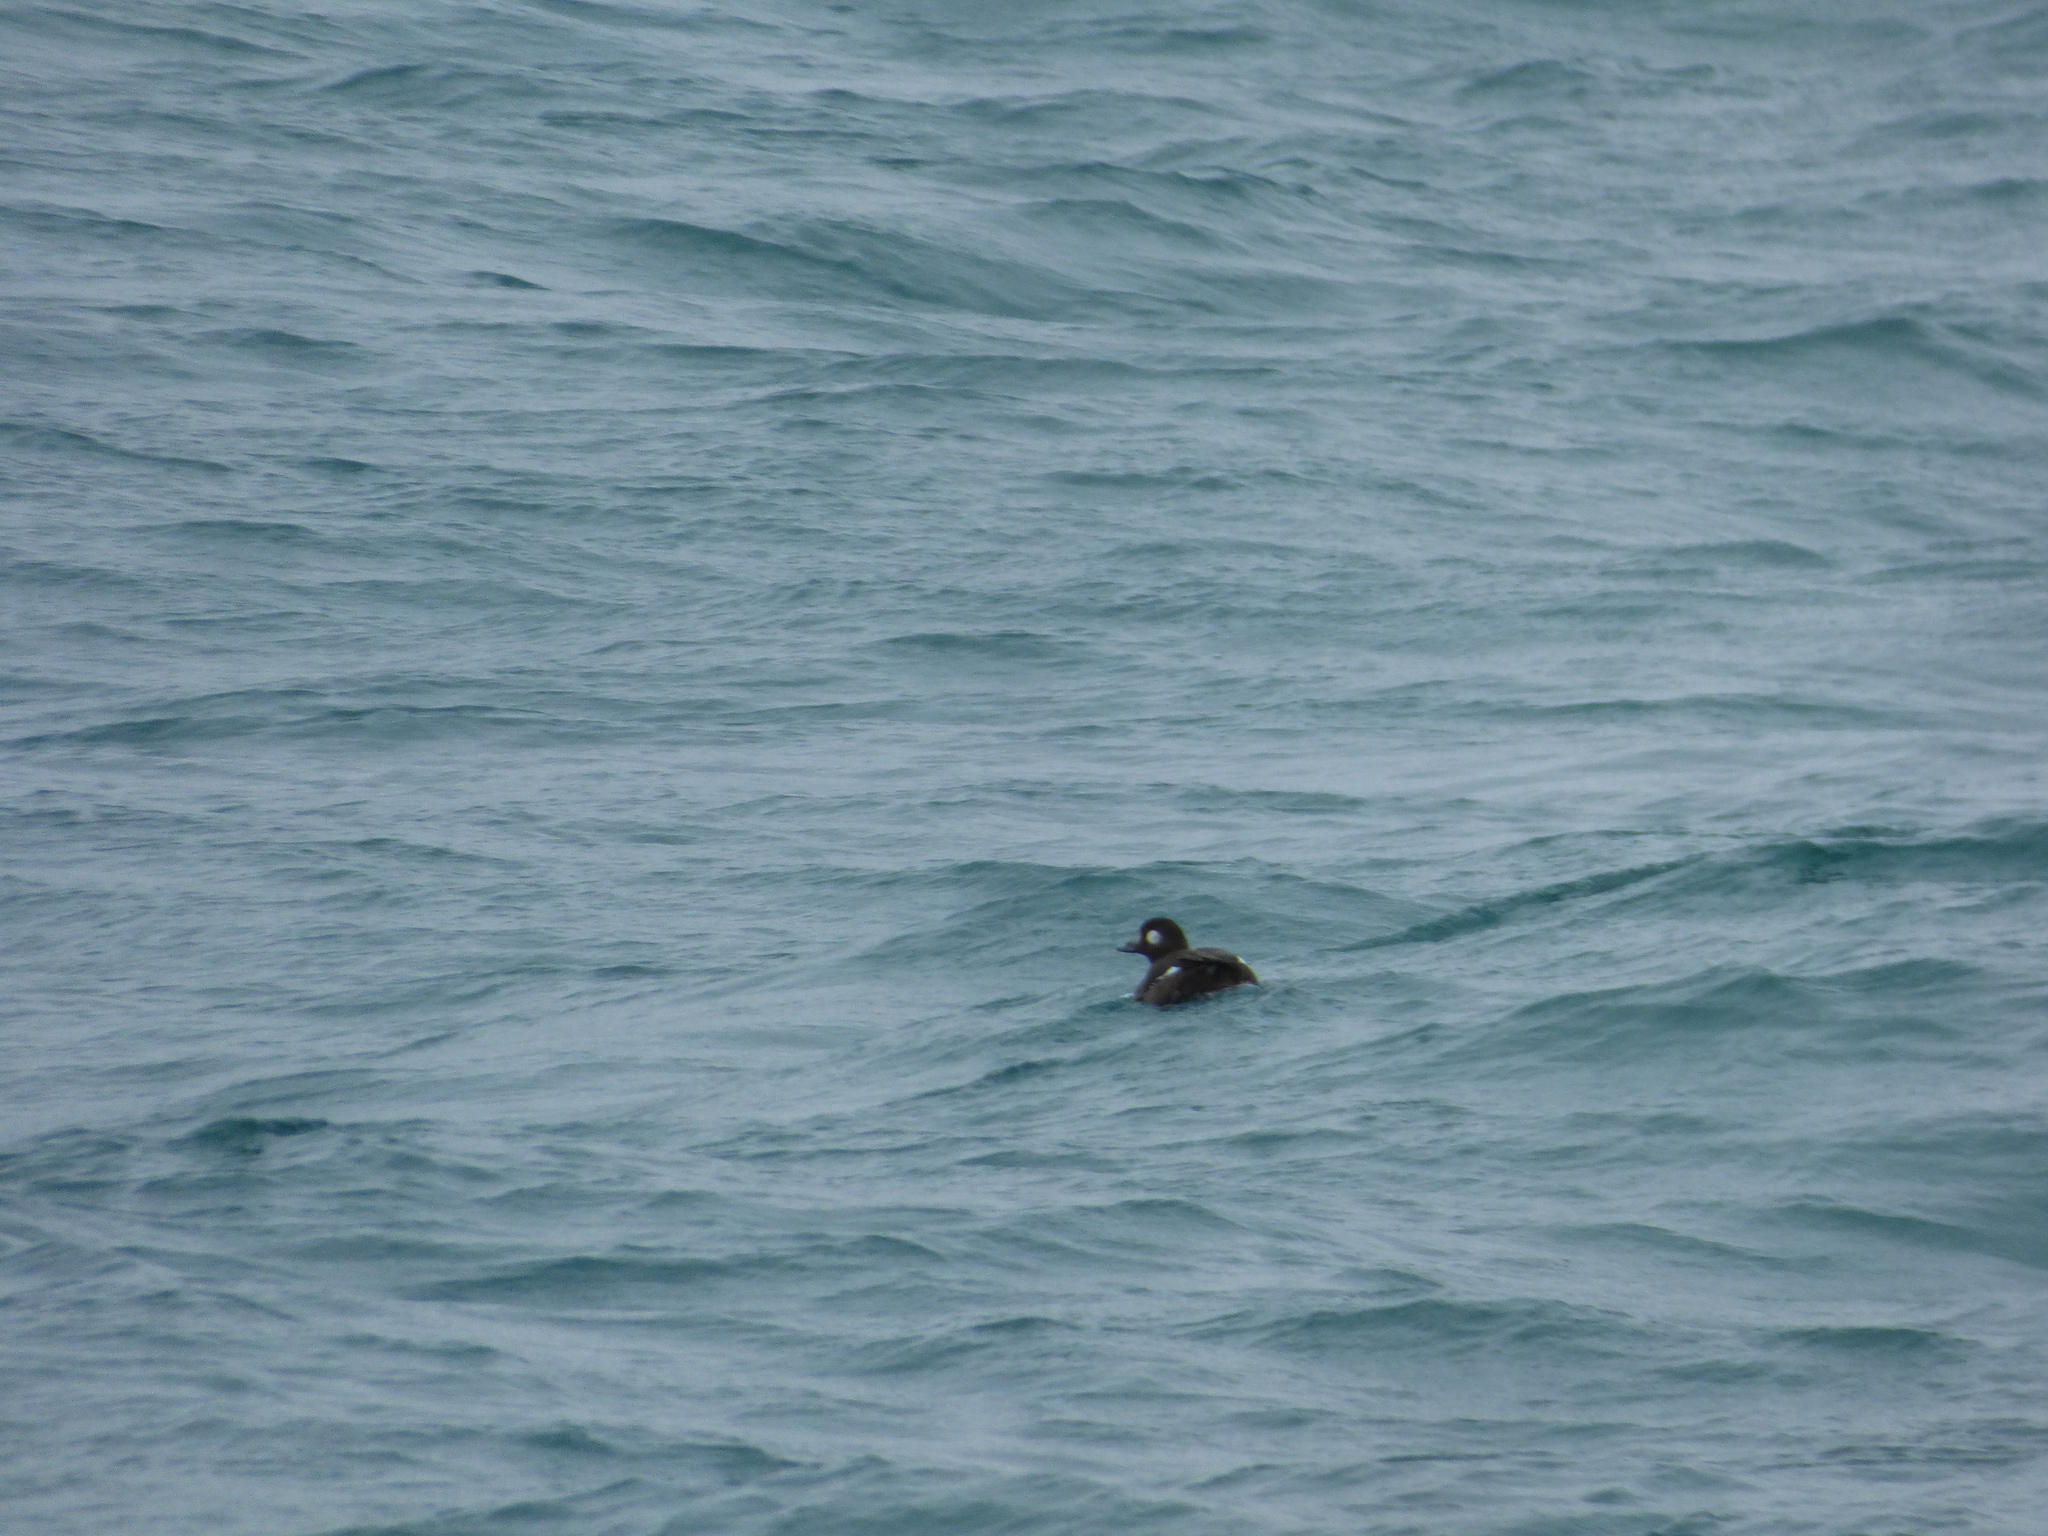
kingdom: Animalia
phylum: Chordata
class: Aves
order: Anseriformes
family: Anatidae
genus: Melanitta
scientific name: Melanitta deglandi
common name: White-winged scoter
